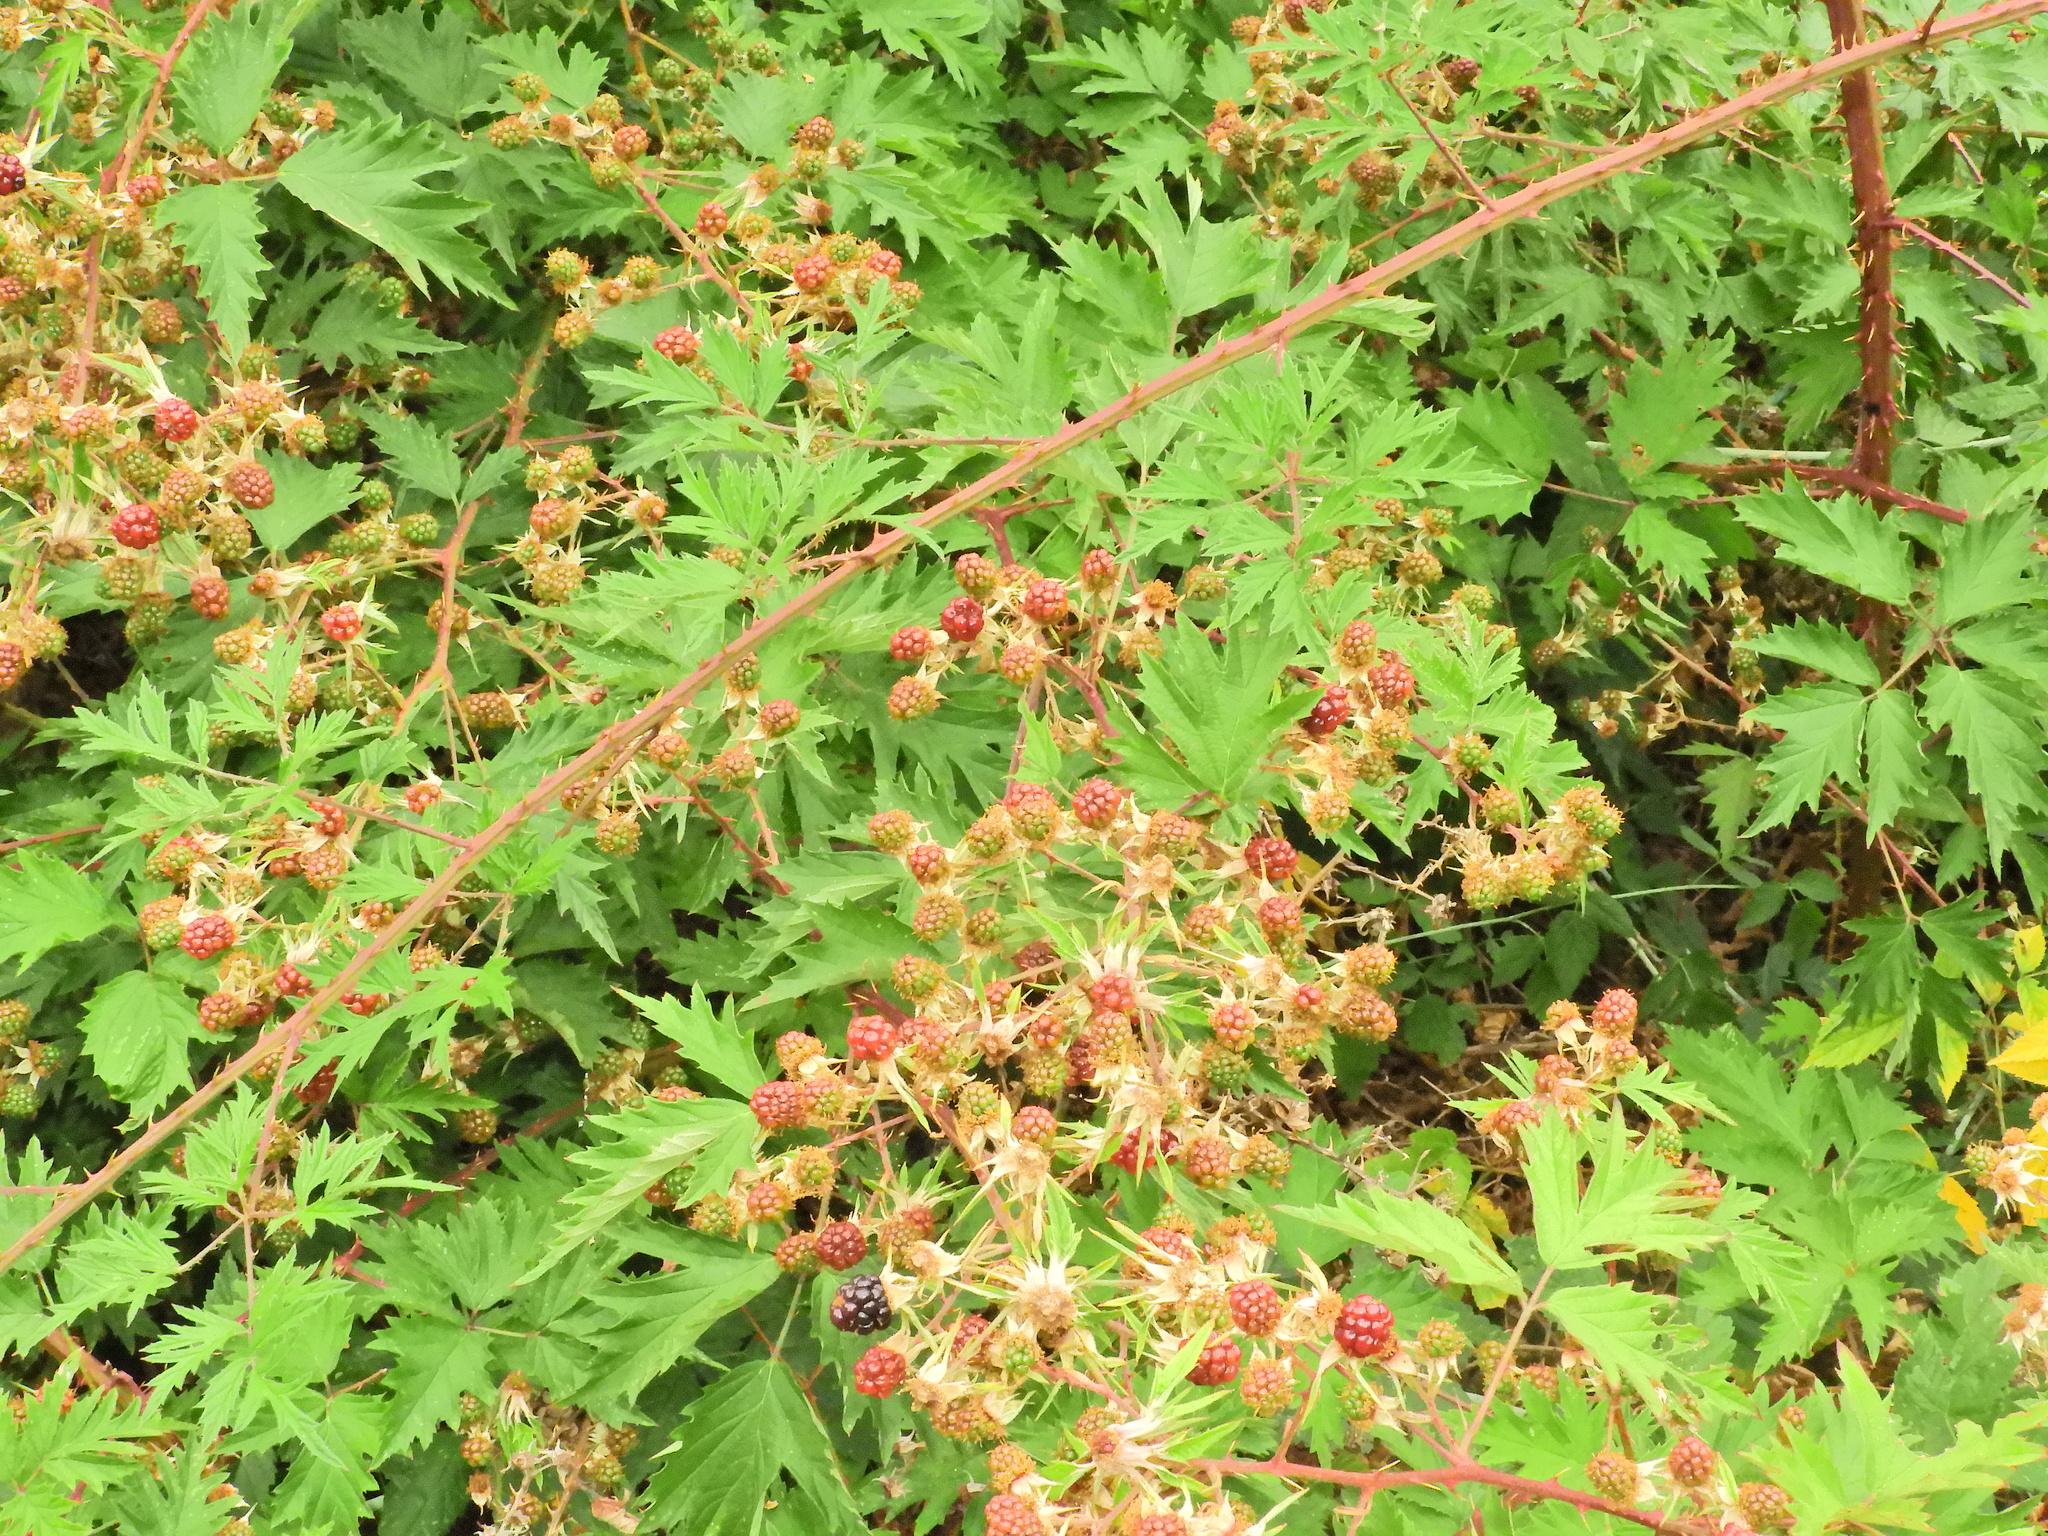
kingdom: Plantae
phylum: Tracheophyta
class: Magnoliopsida
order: Rosales
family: Rosaceae
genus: Rubus
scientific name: Rubus laciniatus
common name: Evergreen blackberry
